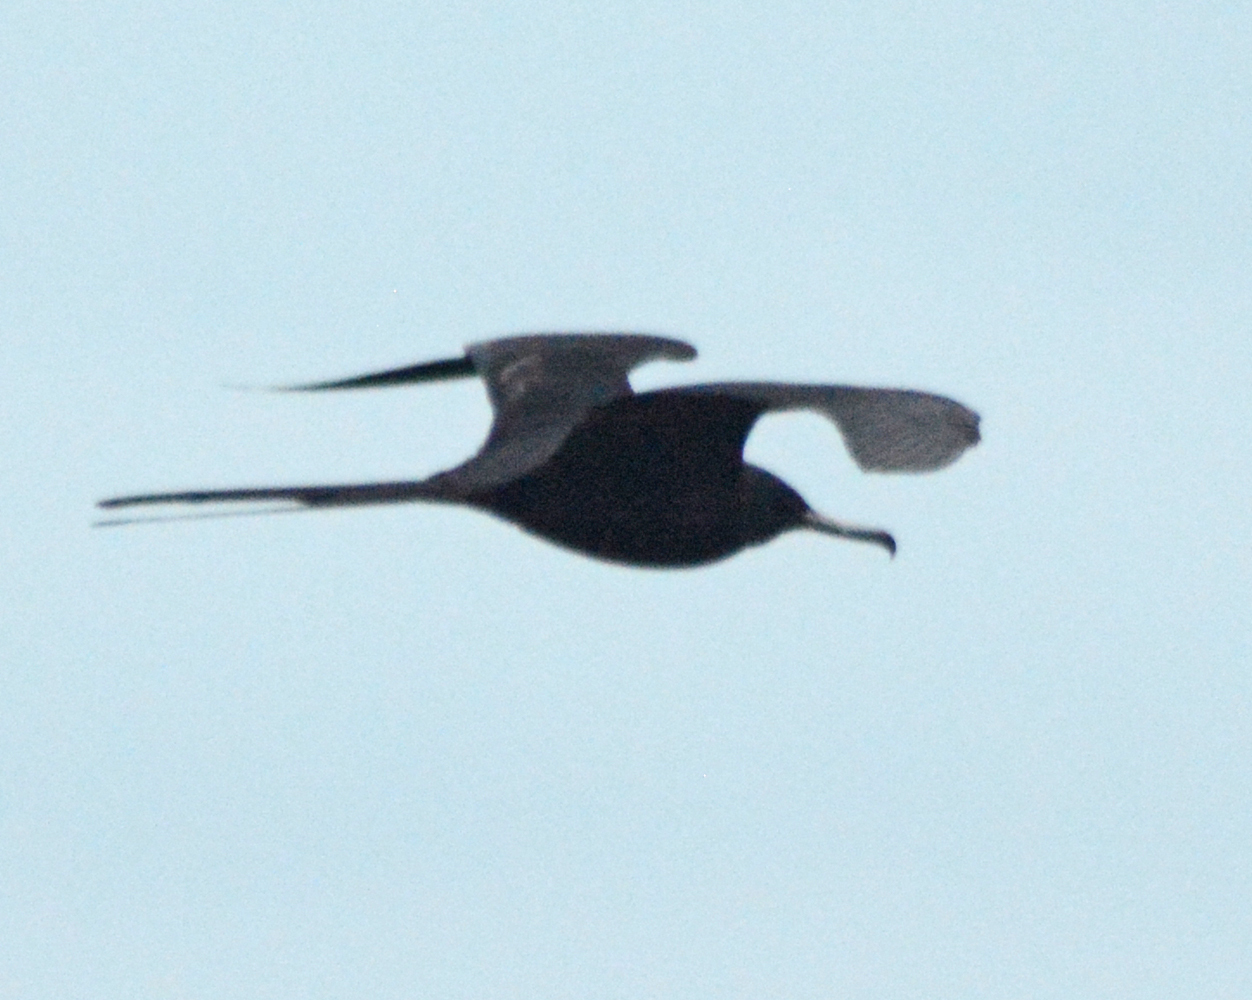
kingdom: Animalia
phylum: Chordata
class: Aves
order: Suliformes
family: Fregatidae
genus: Fregata
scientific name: Fregata magnificens
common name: Magnificent frigatebird
